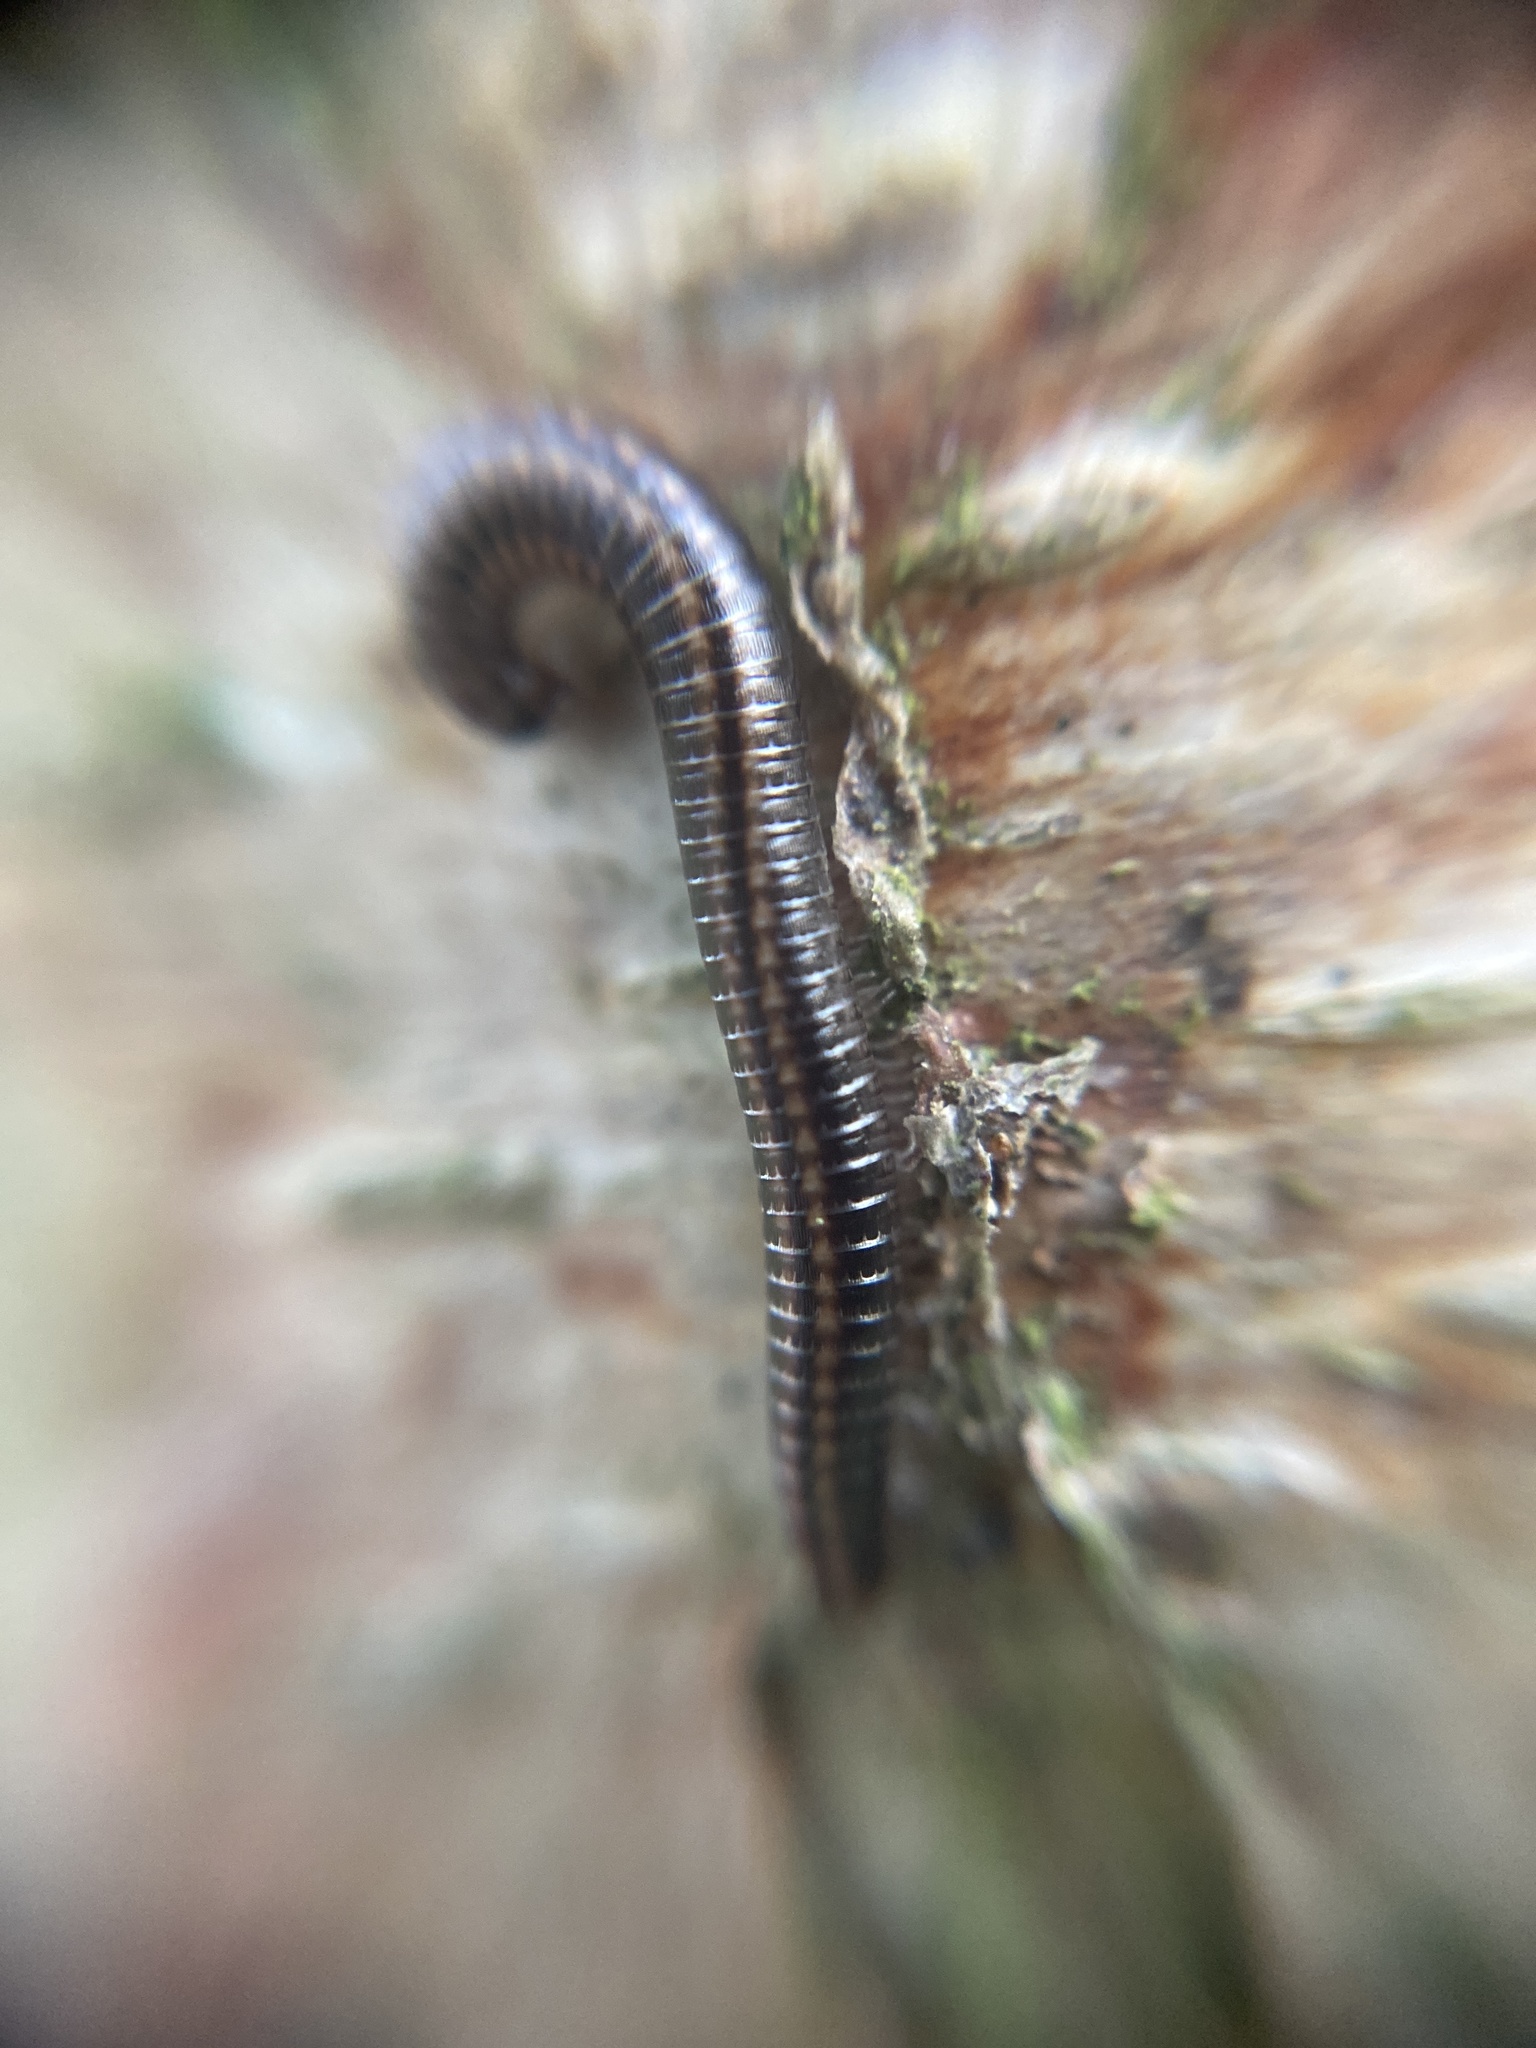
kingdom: Animalia
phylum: Arthropoda
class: Diplopoda
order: Julida
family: Julidae
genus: Ommatoiulus
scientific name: Ommatoiulus sabulosus
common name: Striped millipede
